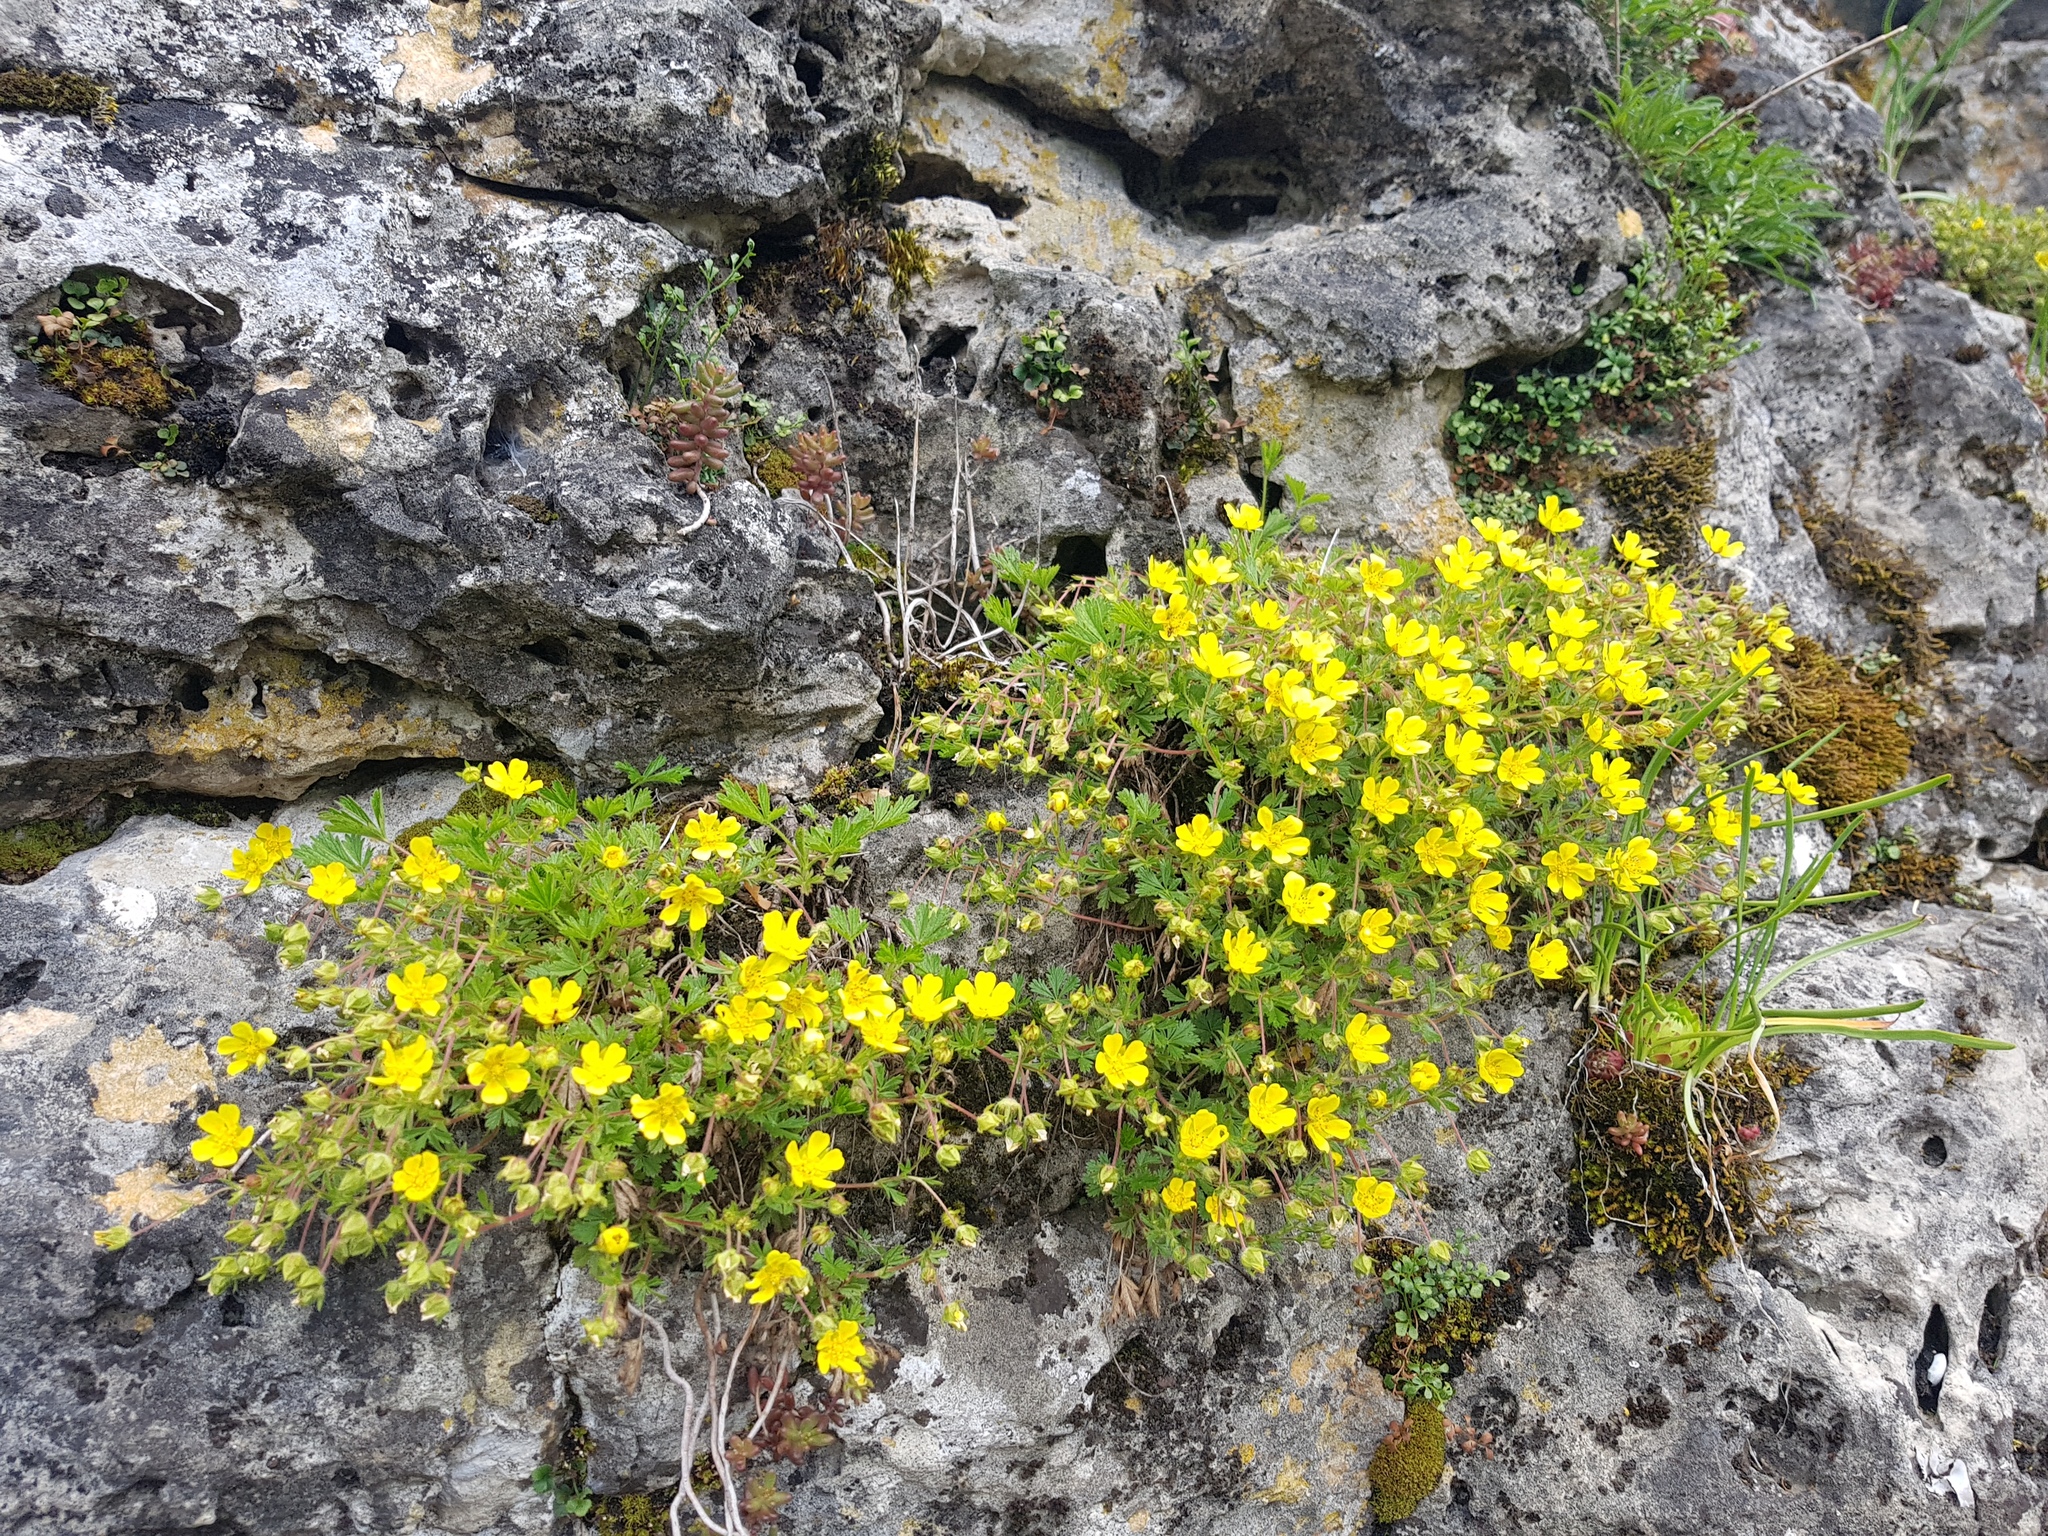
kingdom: Plantae
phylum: Tracheophyta
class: Magnoliopsida
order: Rosales
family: Rosaceae
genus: Potentilla
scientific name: Potentilla verna
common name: Spring cinquefoil
